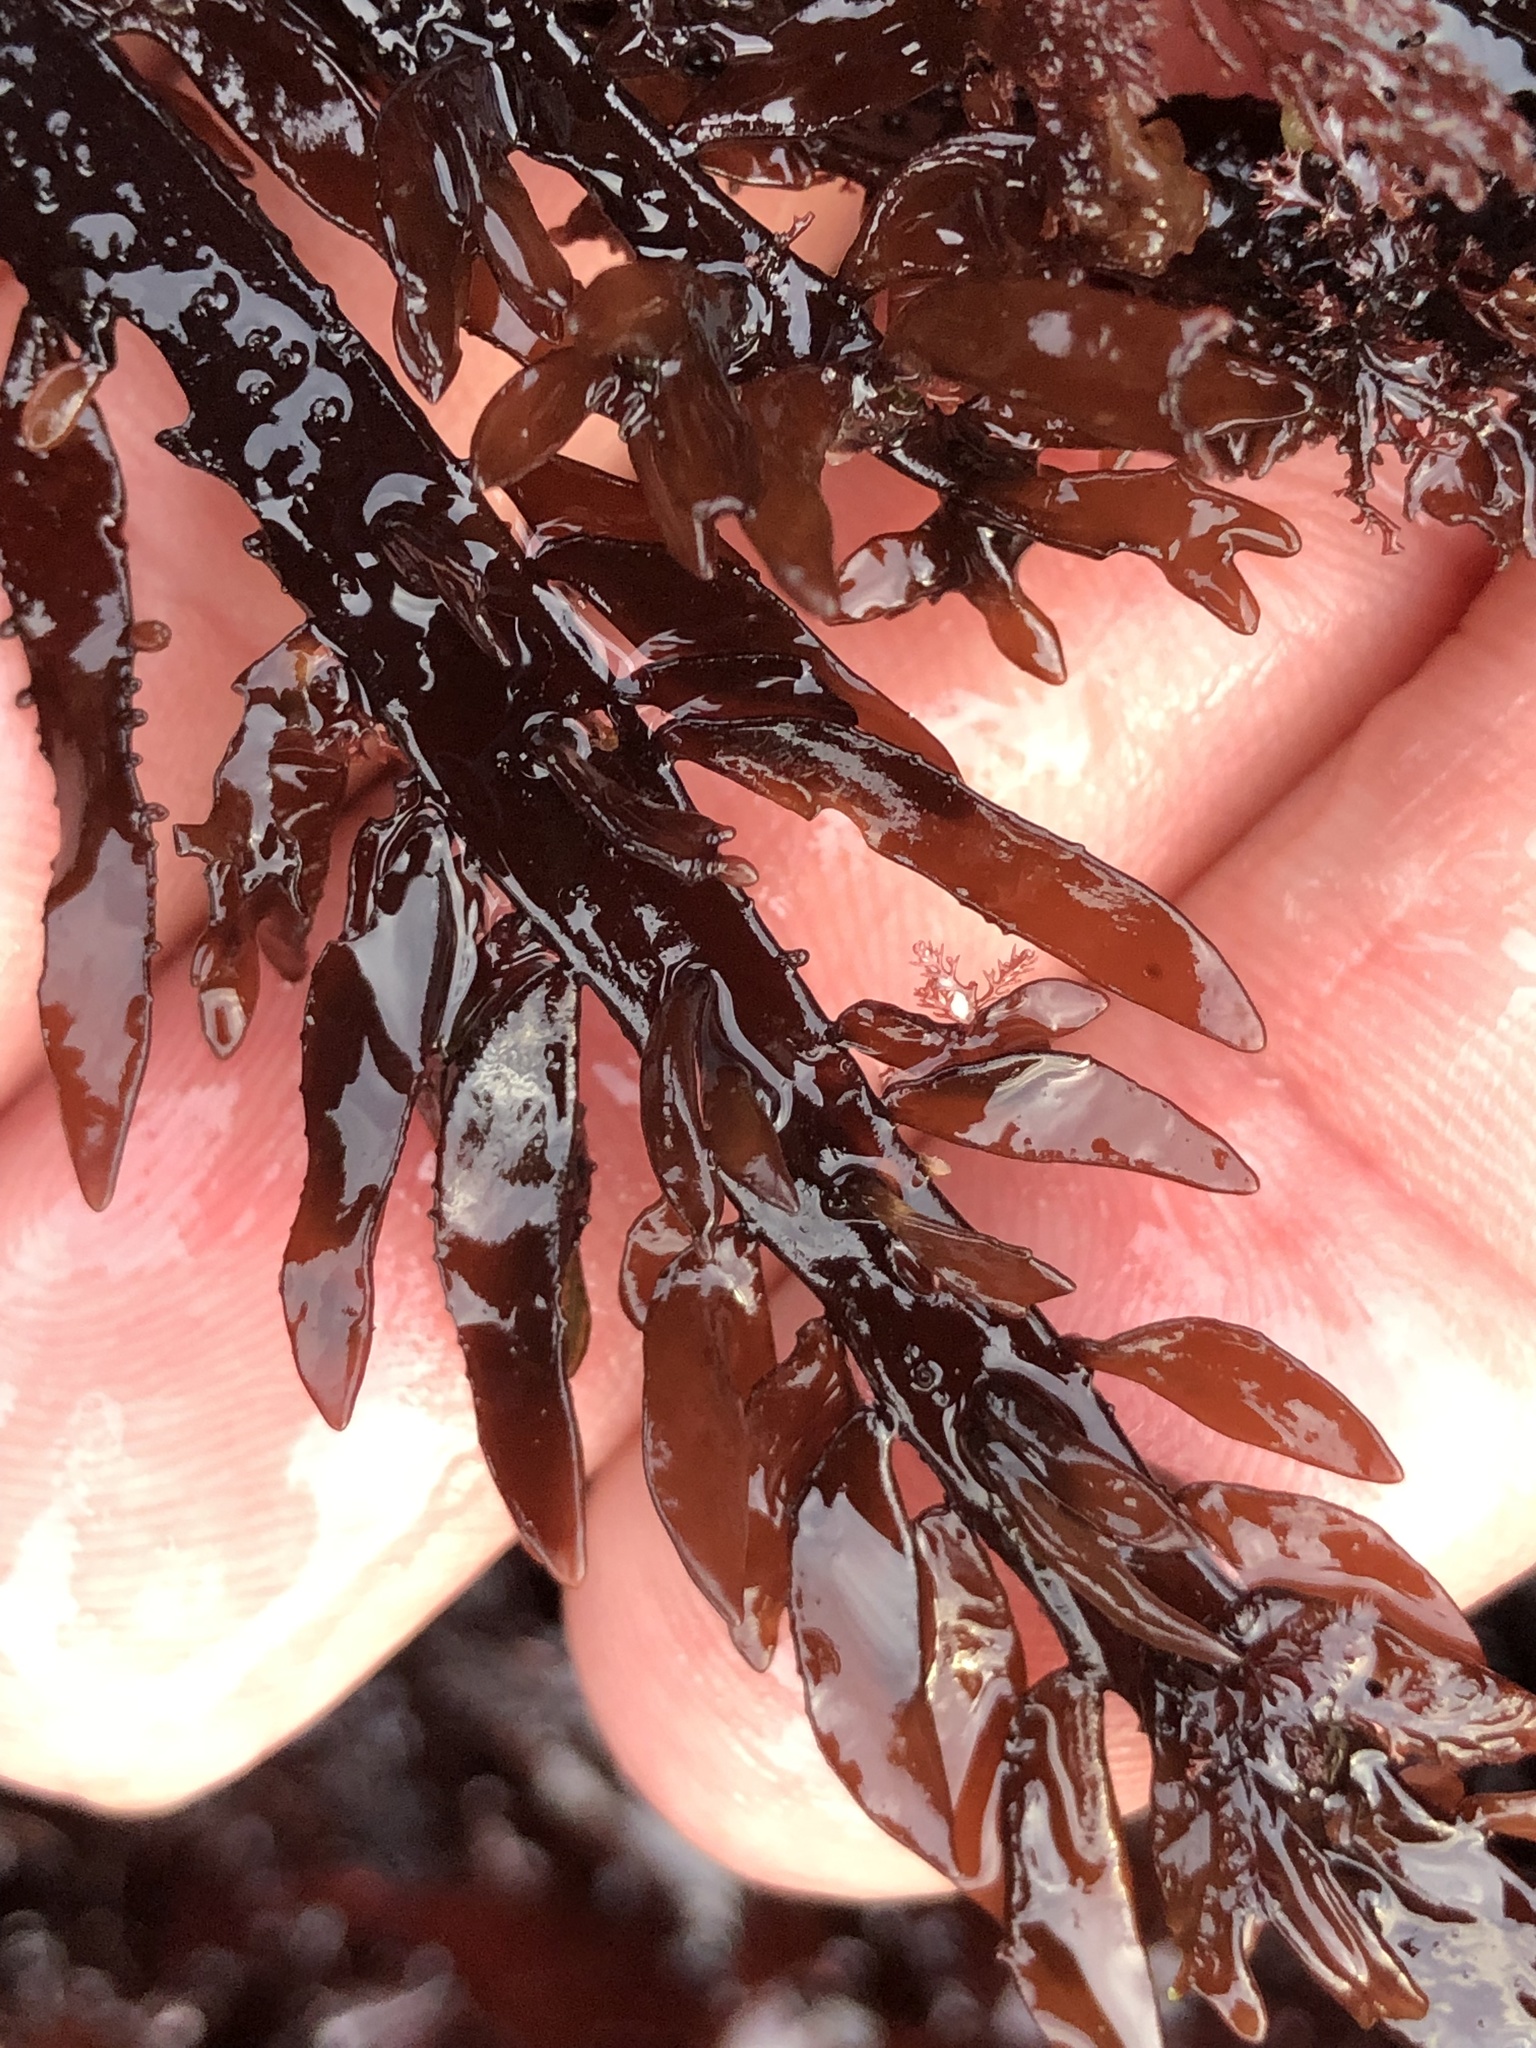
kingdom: Plantae
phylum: Rhodophyta
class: Florideophyceae
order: Halymeniales
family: Halymeniaceae
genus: Grateloupia
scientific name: Grateloupia Prionitis lanceolata
